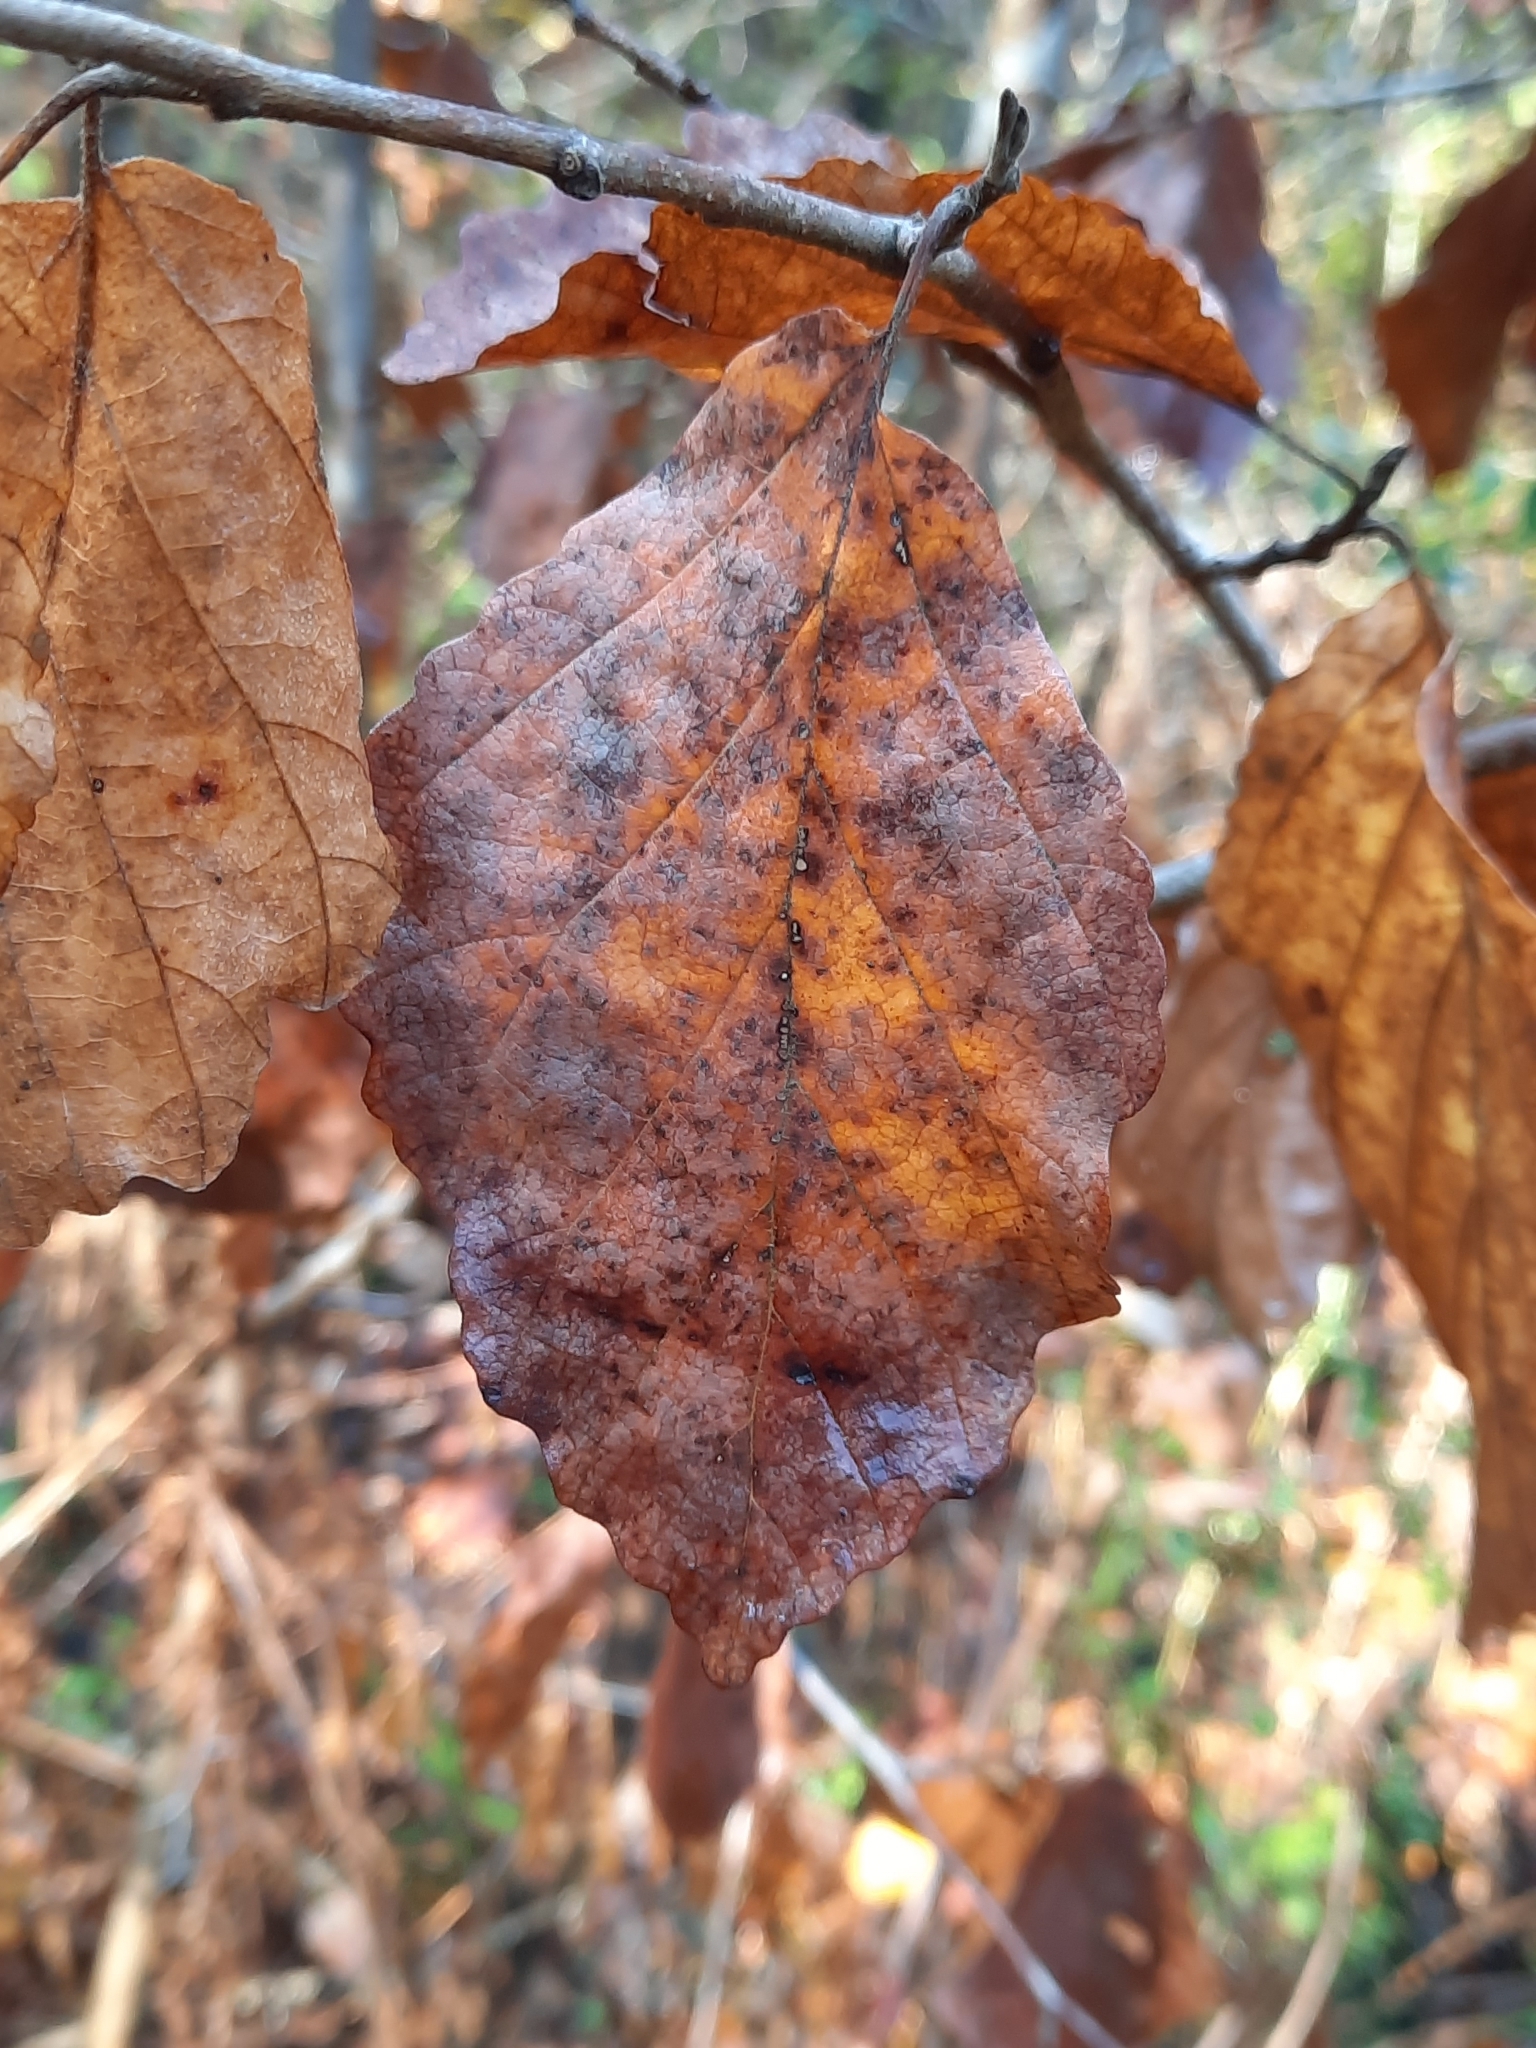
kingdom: Plantae
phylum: Tracheophyta
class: Magnoliopsida
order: Saxifragales
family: Hamamelidaceae
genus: Hamamelis
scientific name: Hamamelis virginiana
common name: Witch-hazel
